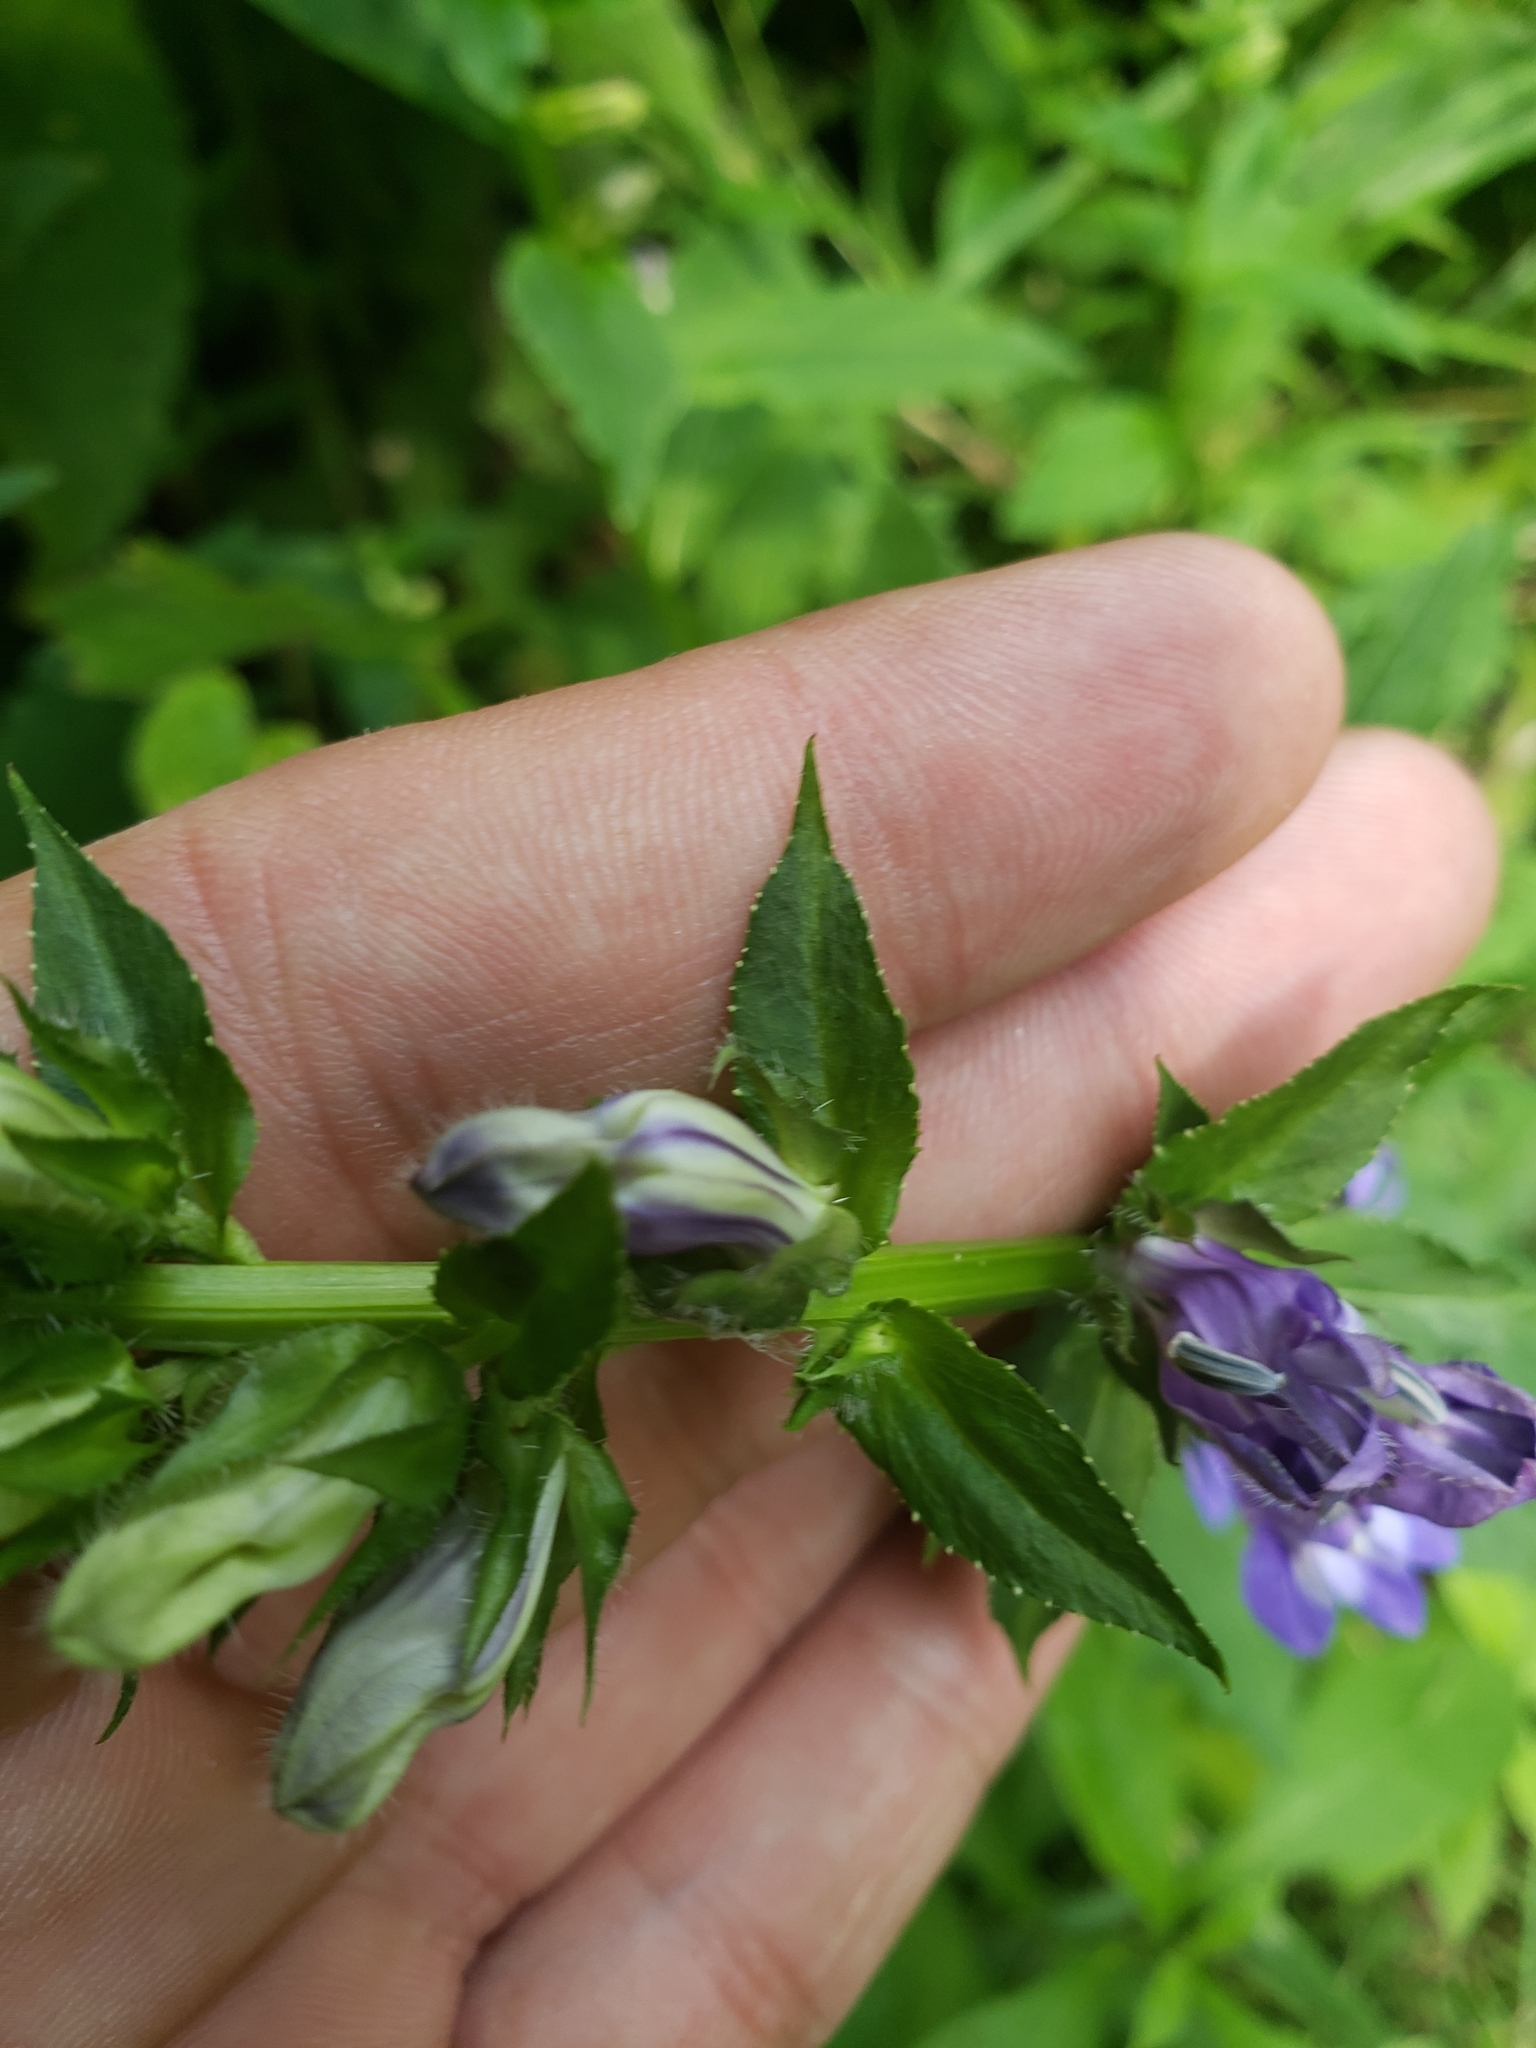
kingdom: Plantae
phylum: Tracheophyta
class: Magnoliopsida
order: Asterales
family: Campanulaceae
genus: Lobelia
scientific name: Lobelia siphilitica
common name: Great lobelia
